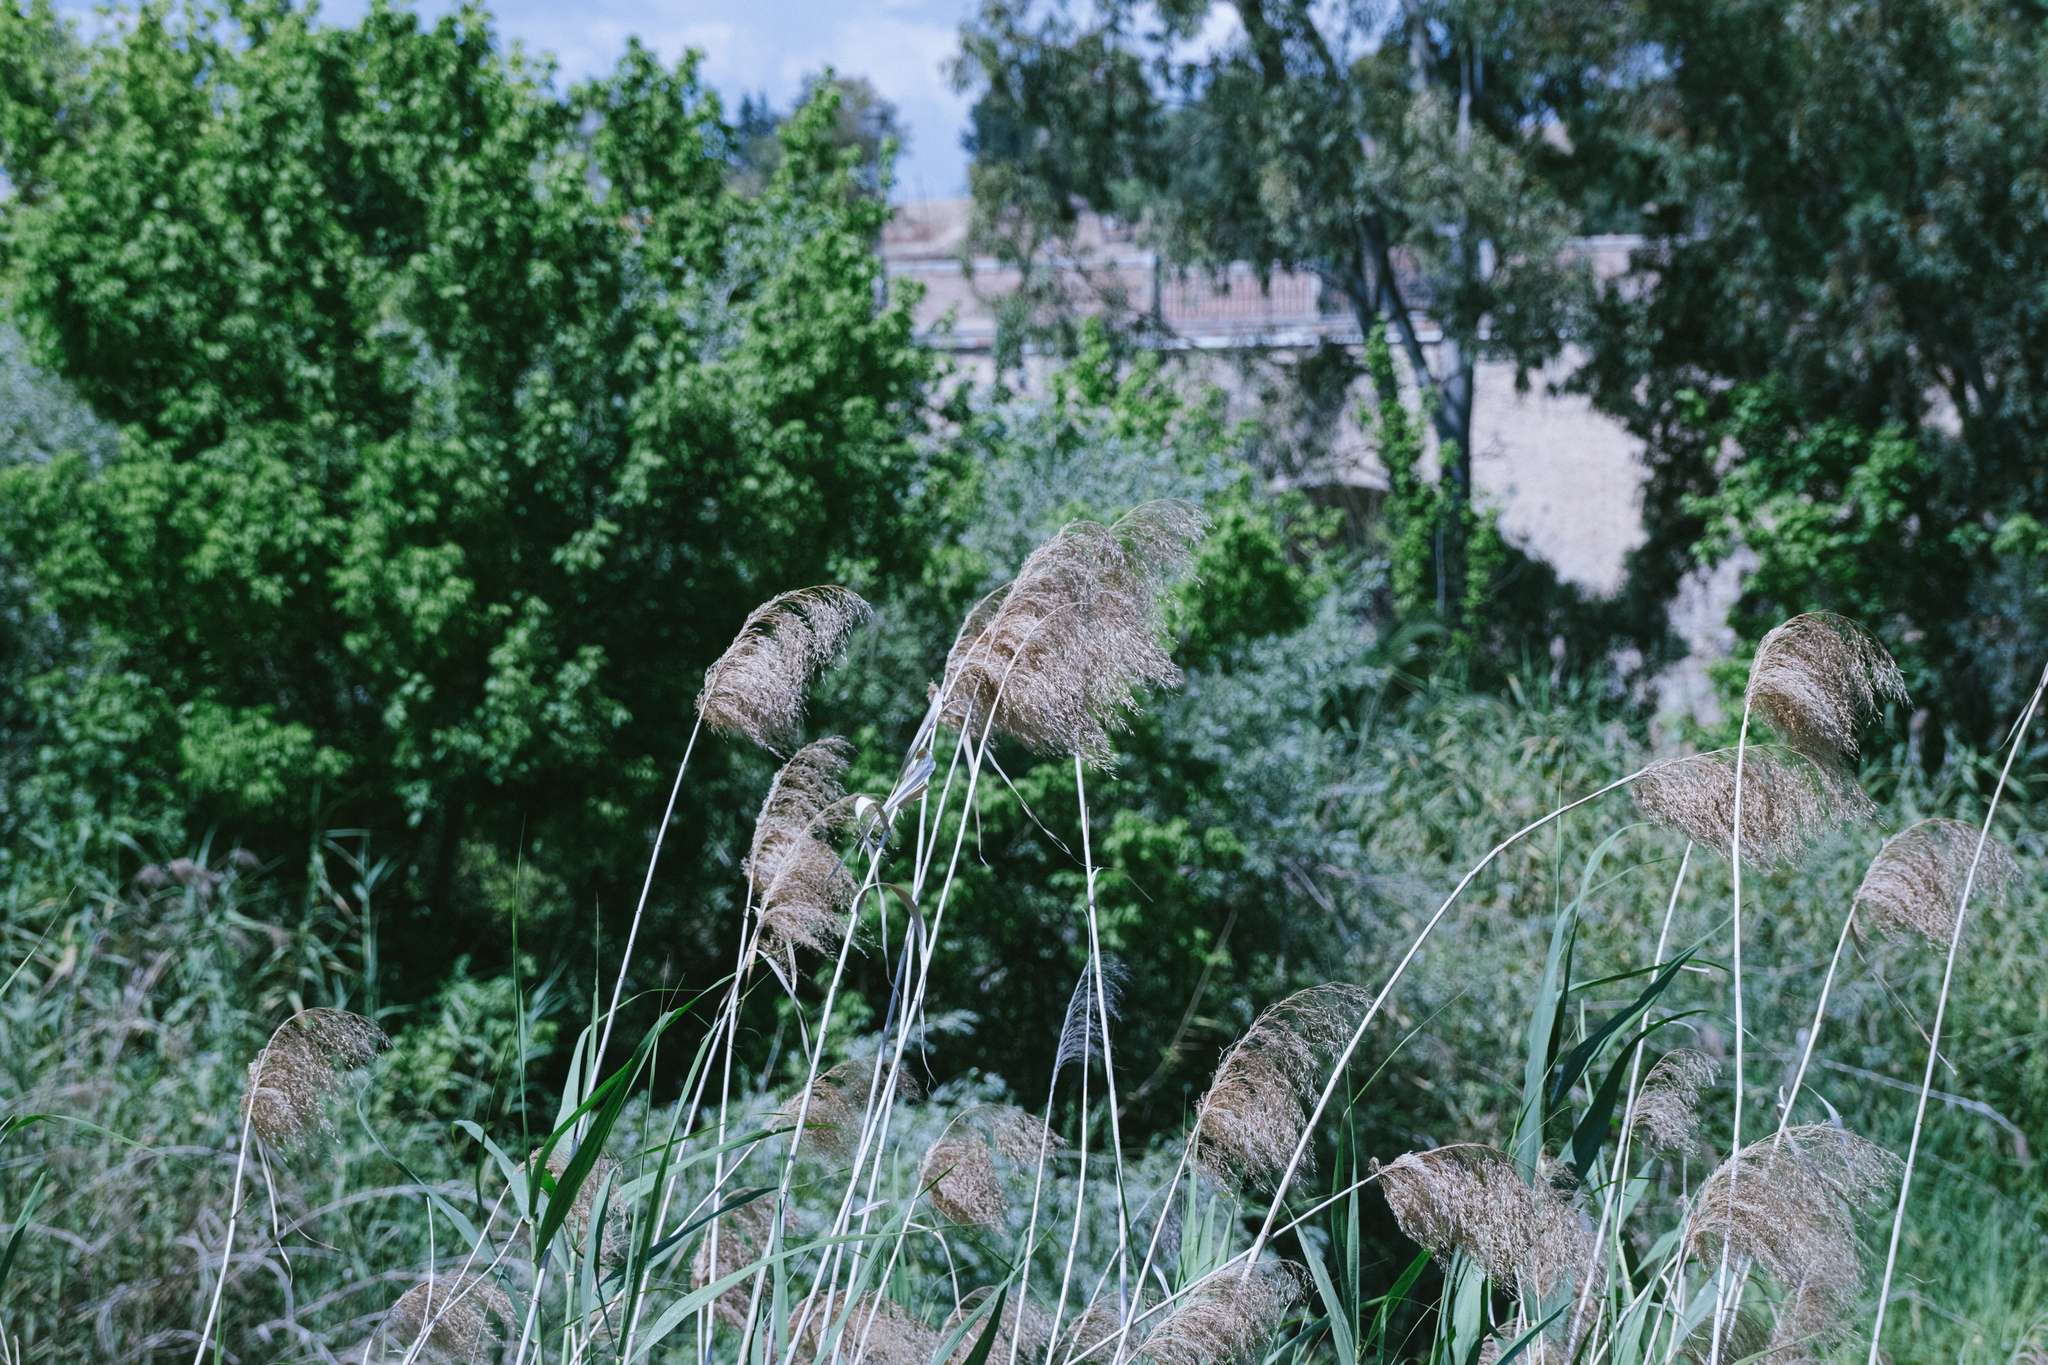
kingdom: Plantae
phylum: Tracheophyta
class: Liliopsida
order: Poales
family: Poaceae
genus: Arundo
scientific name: Arundo donax
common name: Giant reed
